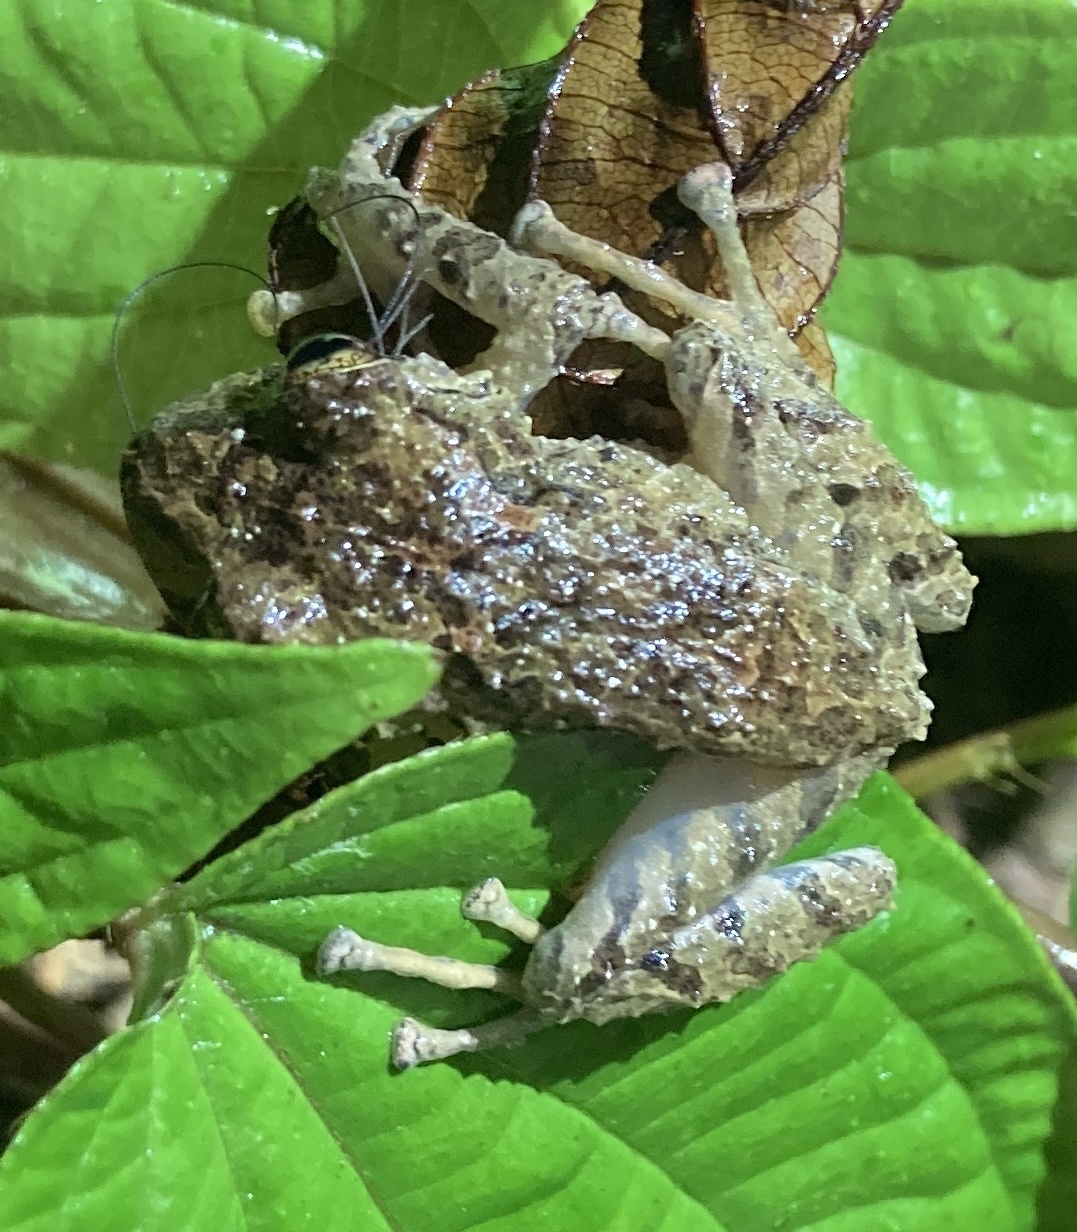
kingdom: Animalia
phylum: Chordata
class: Amphibia
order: Anura
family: Craugastoridae
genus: Pristimantis
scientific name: Pristimantis cruentus
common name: Chiriqui robber frog
